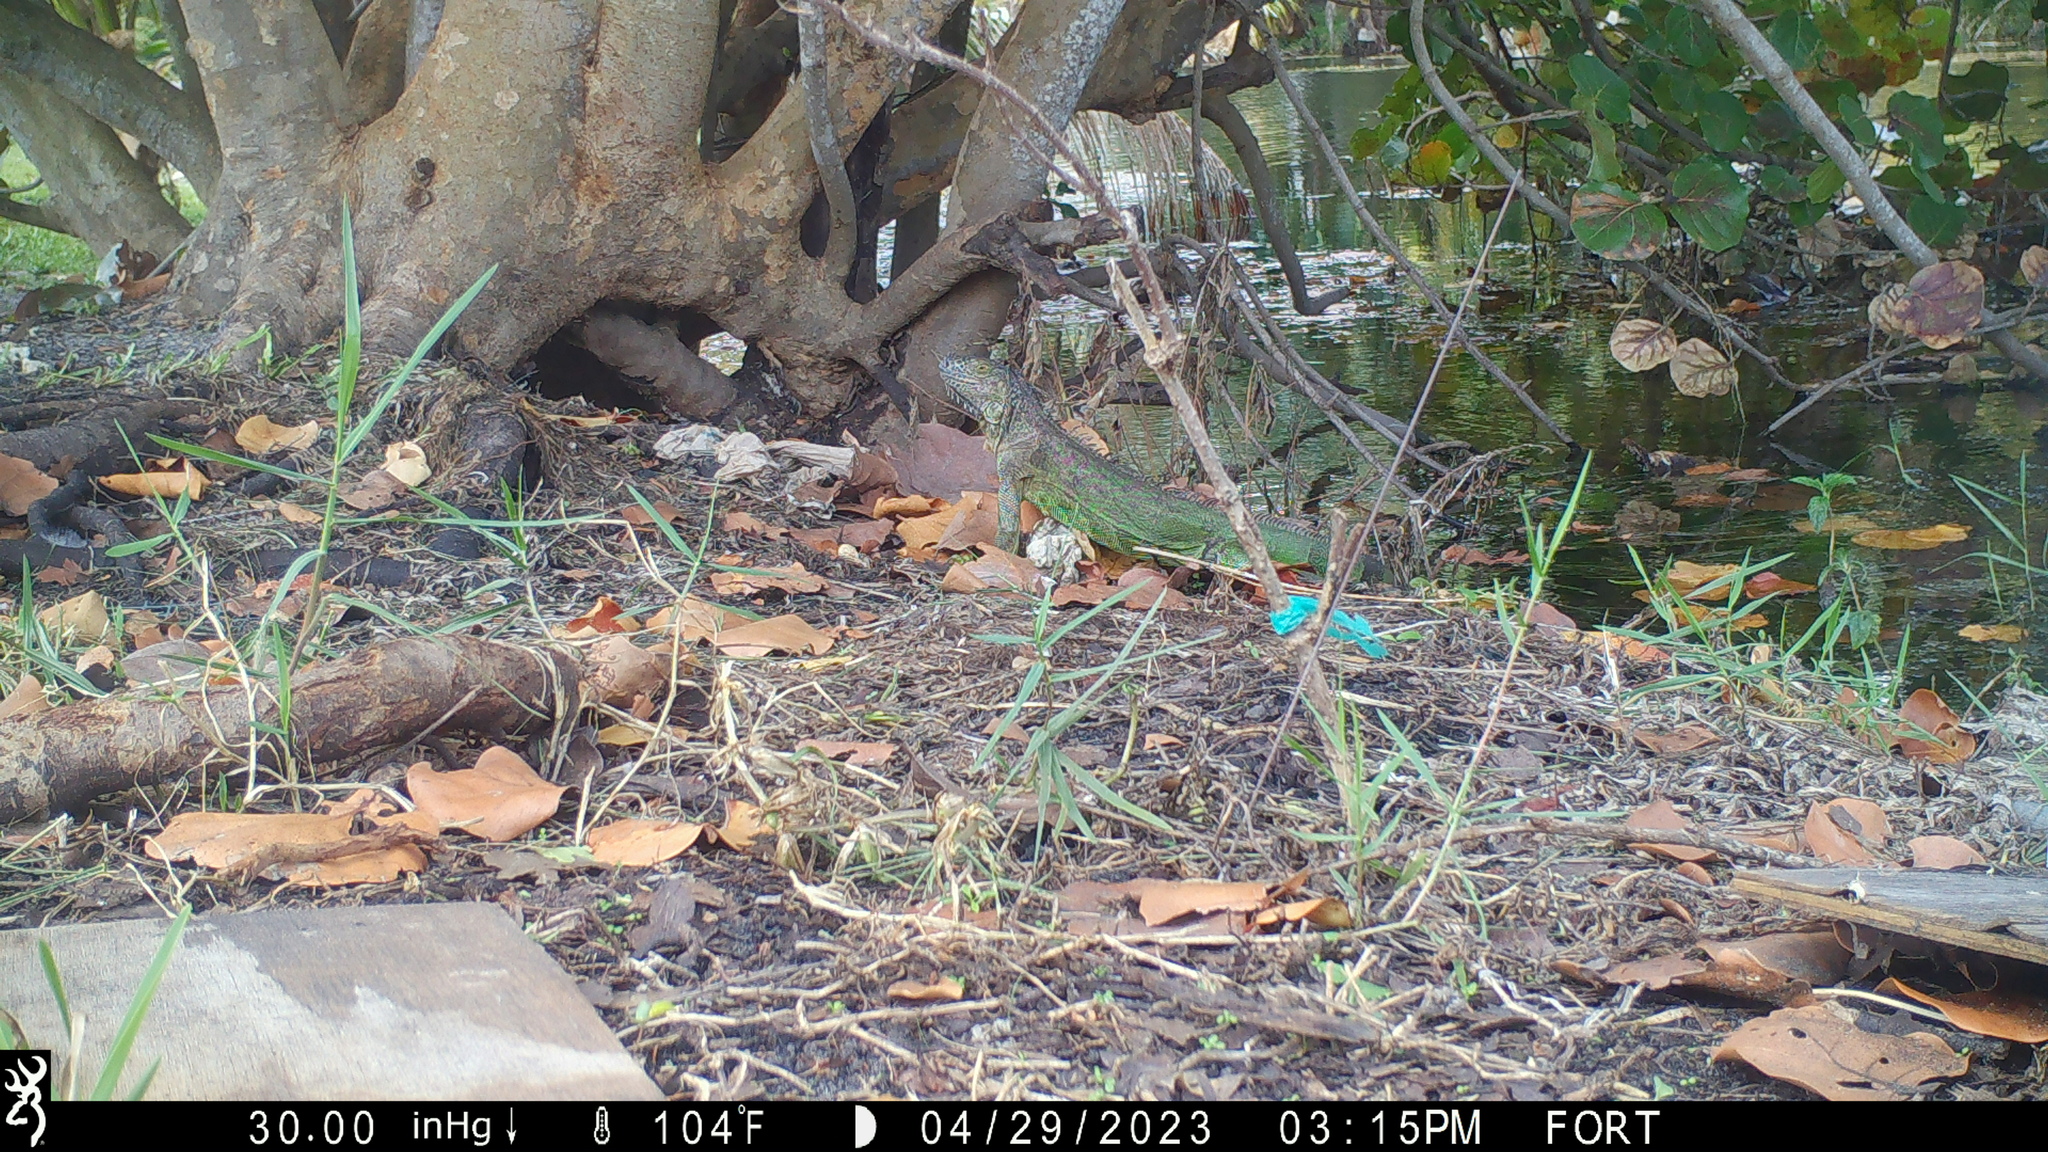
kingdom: Animalia
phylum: Chordata
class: Squamata
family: Iguanidae
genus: Iguana
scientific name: Iguana iguana
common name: Green iguana
